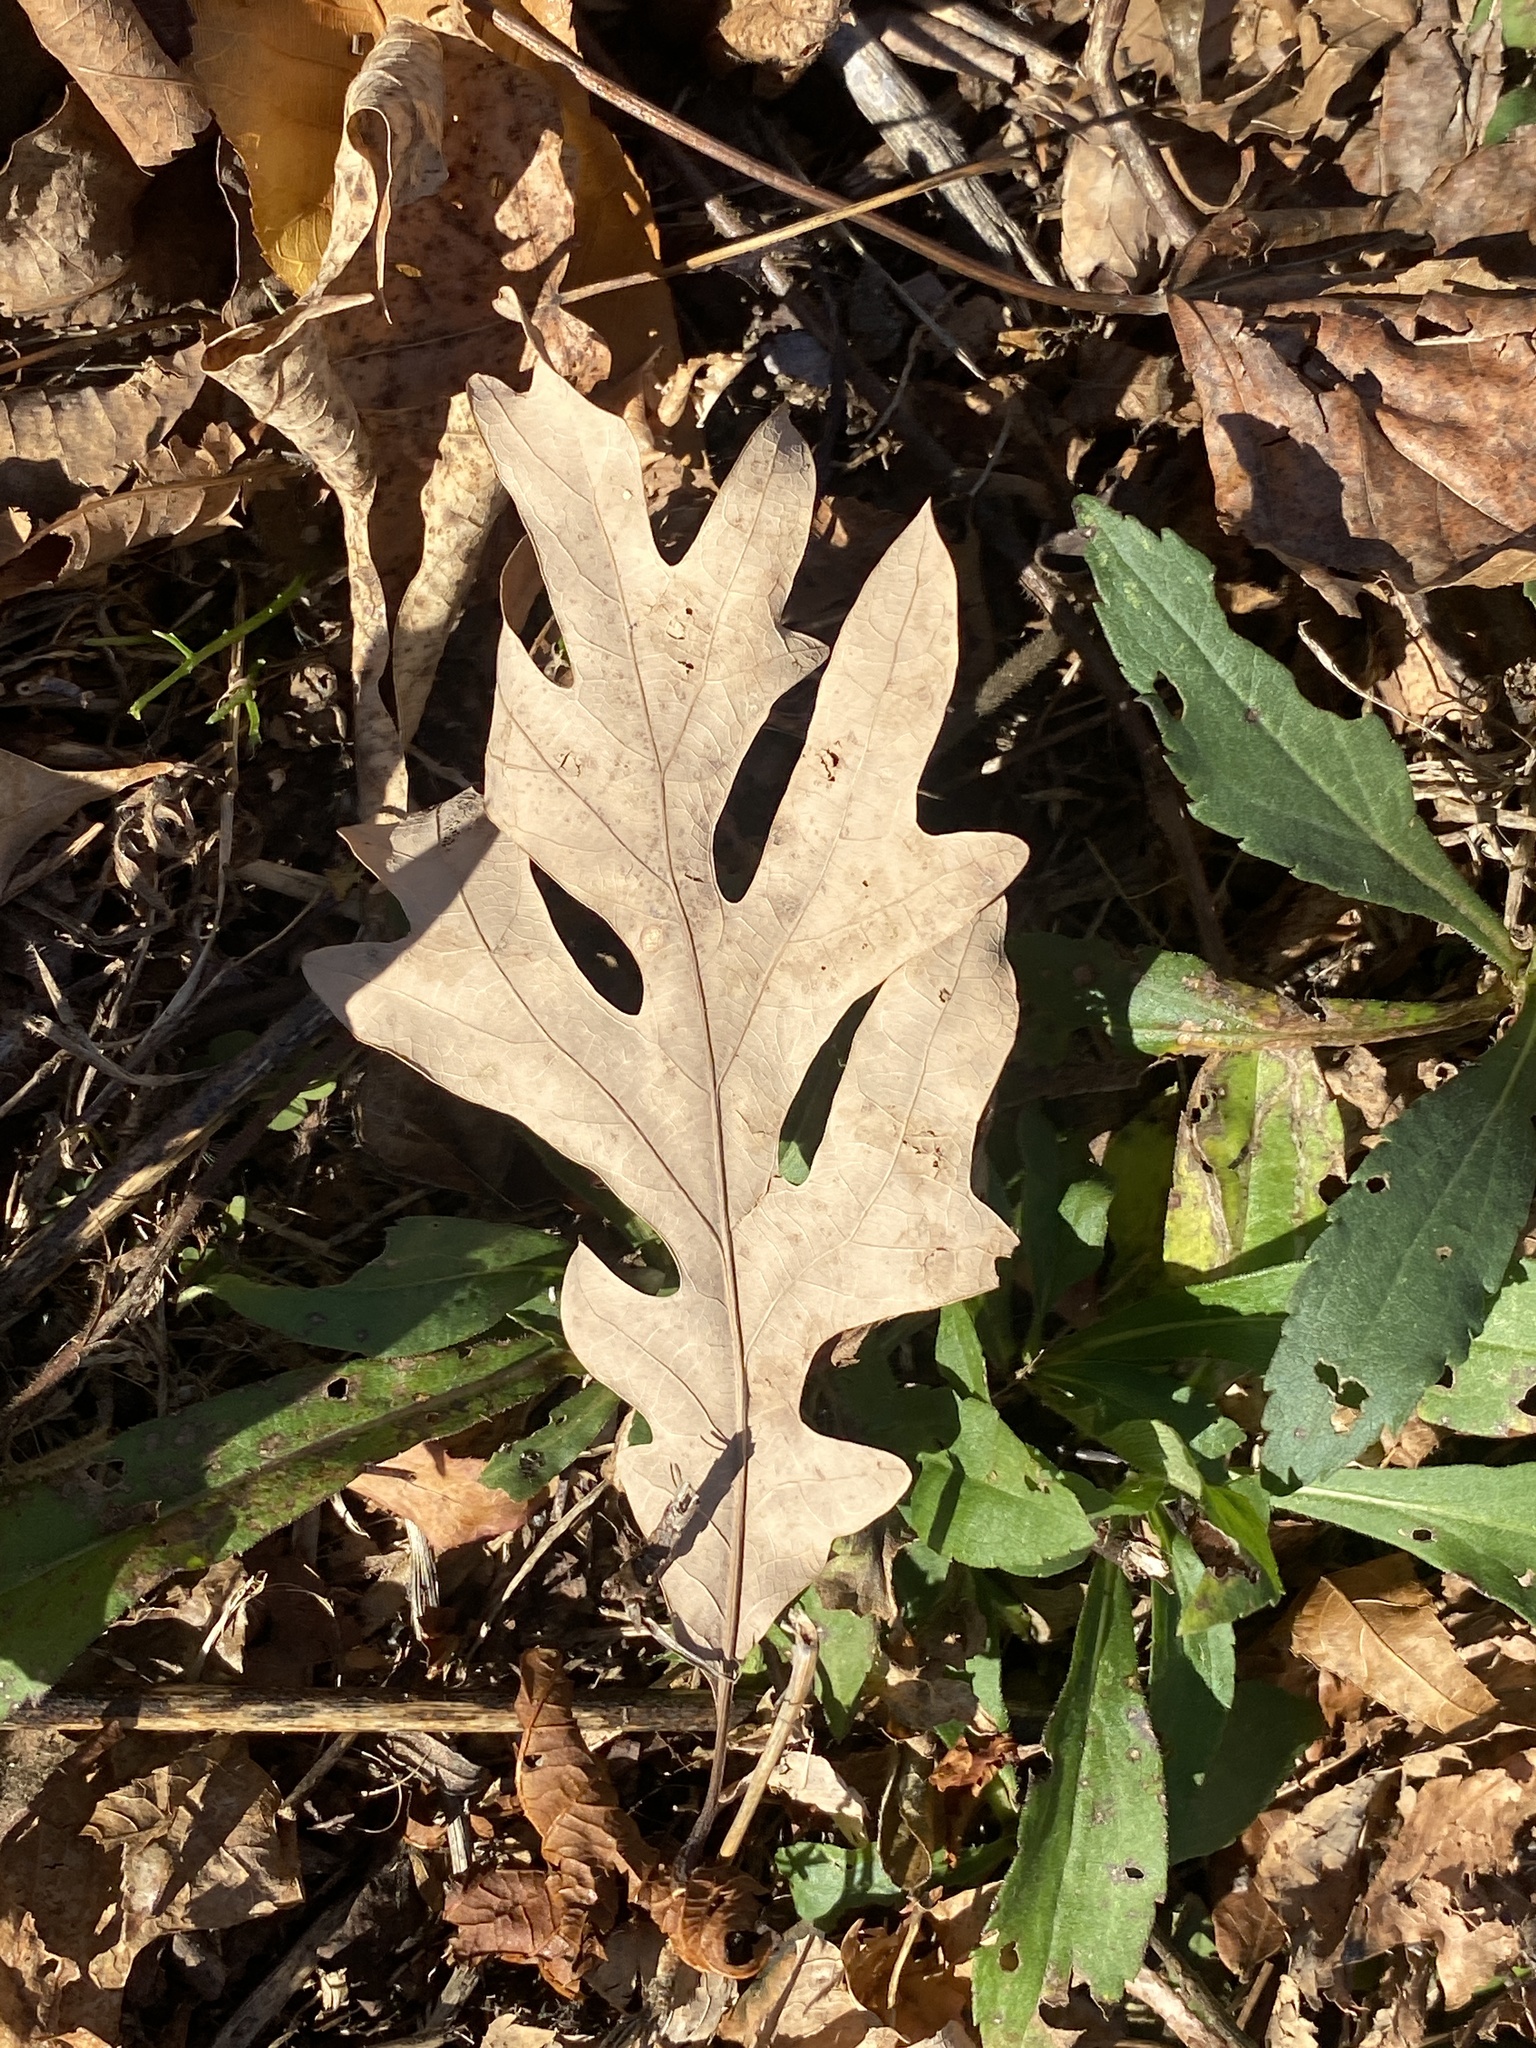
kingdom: Plantae
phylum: Tracheophyta
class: Magnoliopsida
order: Fagales
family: Fagaceae
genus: Quercus
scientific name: Quercus alba
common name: White oak
